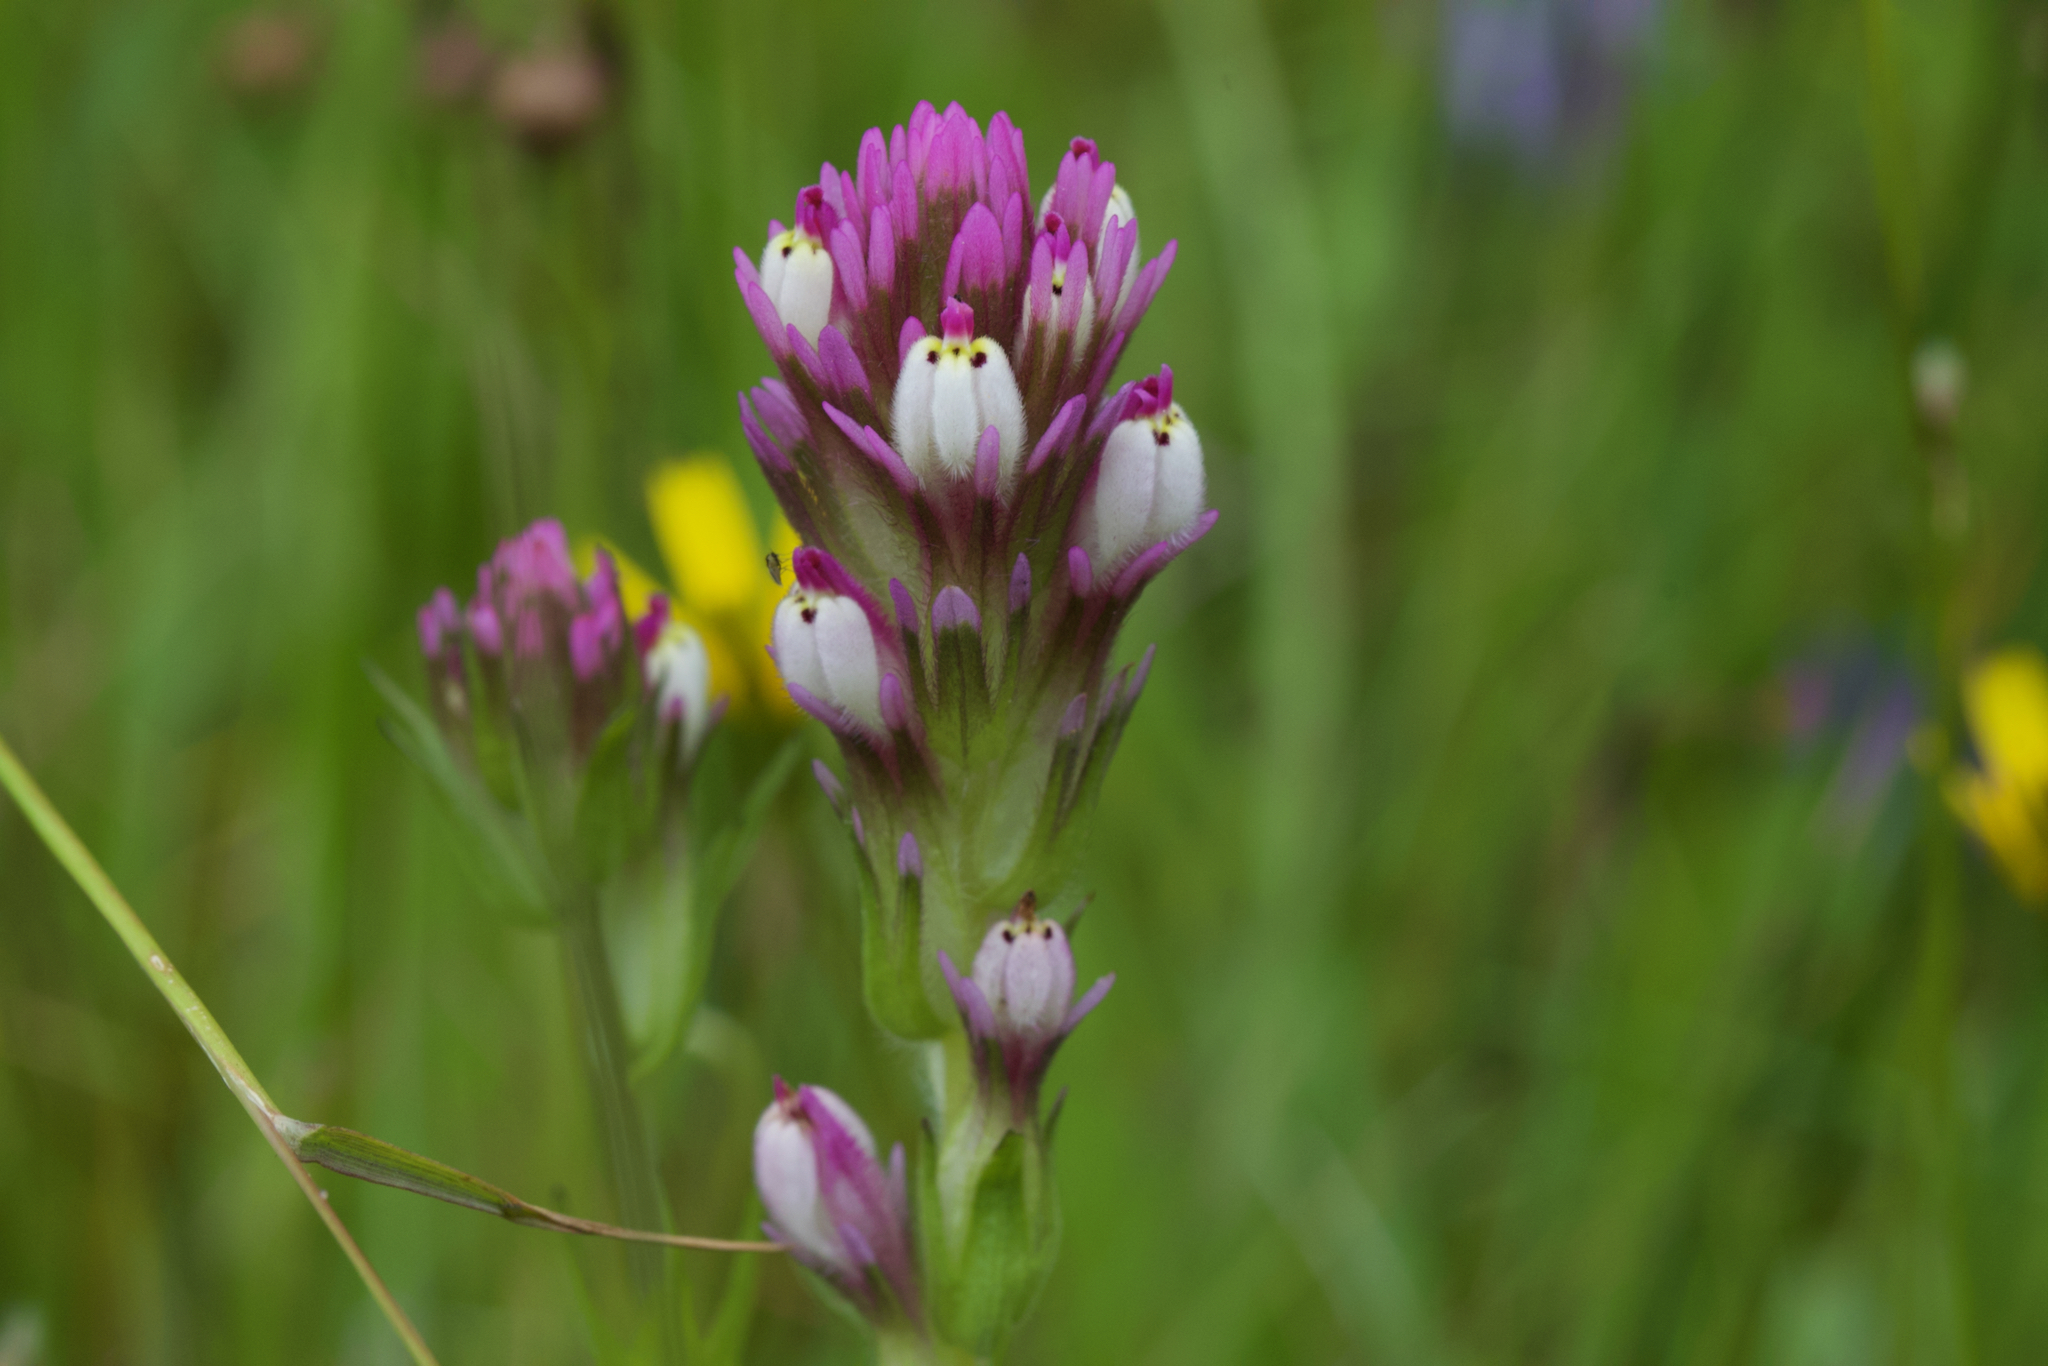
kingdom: Plantae
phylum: Tracheophyta
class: Magnoliopsida
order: Lamiales
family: Orobanchaceae
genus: Castilleja
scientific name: Castilleja densiflora
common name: Dense-flower indian paintbrush
